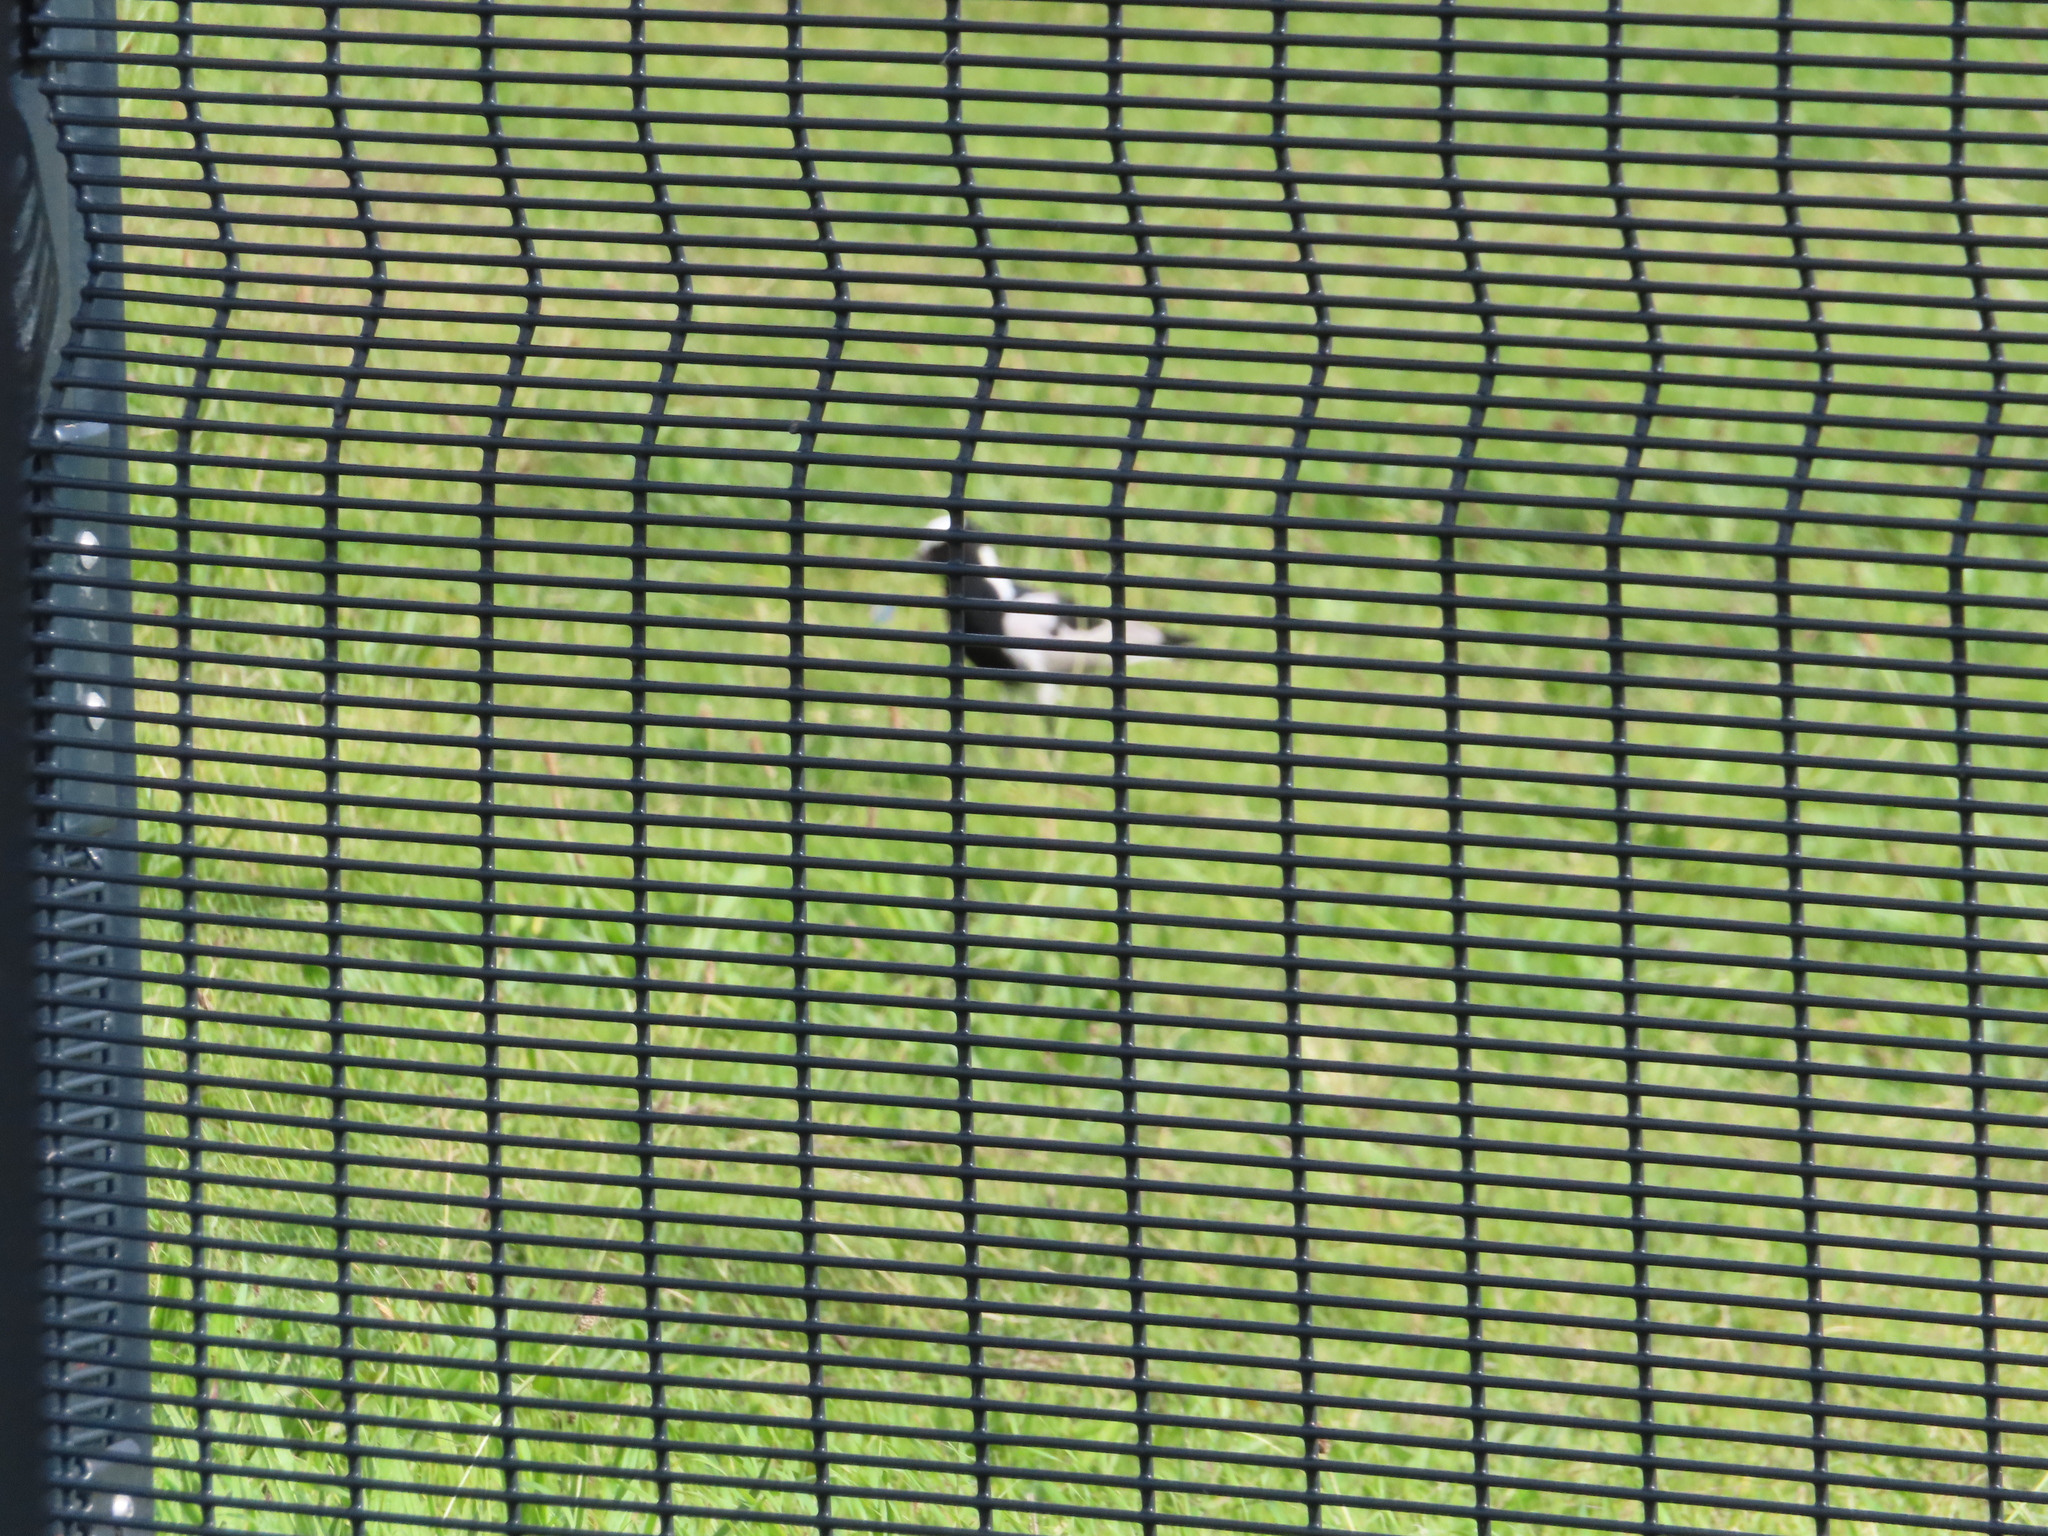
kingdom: Animalia
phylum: Chordata
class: Aves
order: Charadriiformes
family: Charadriidae
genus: Vanellus
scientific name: Vanellus armatus
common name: Blacksmith lapwing
